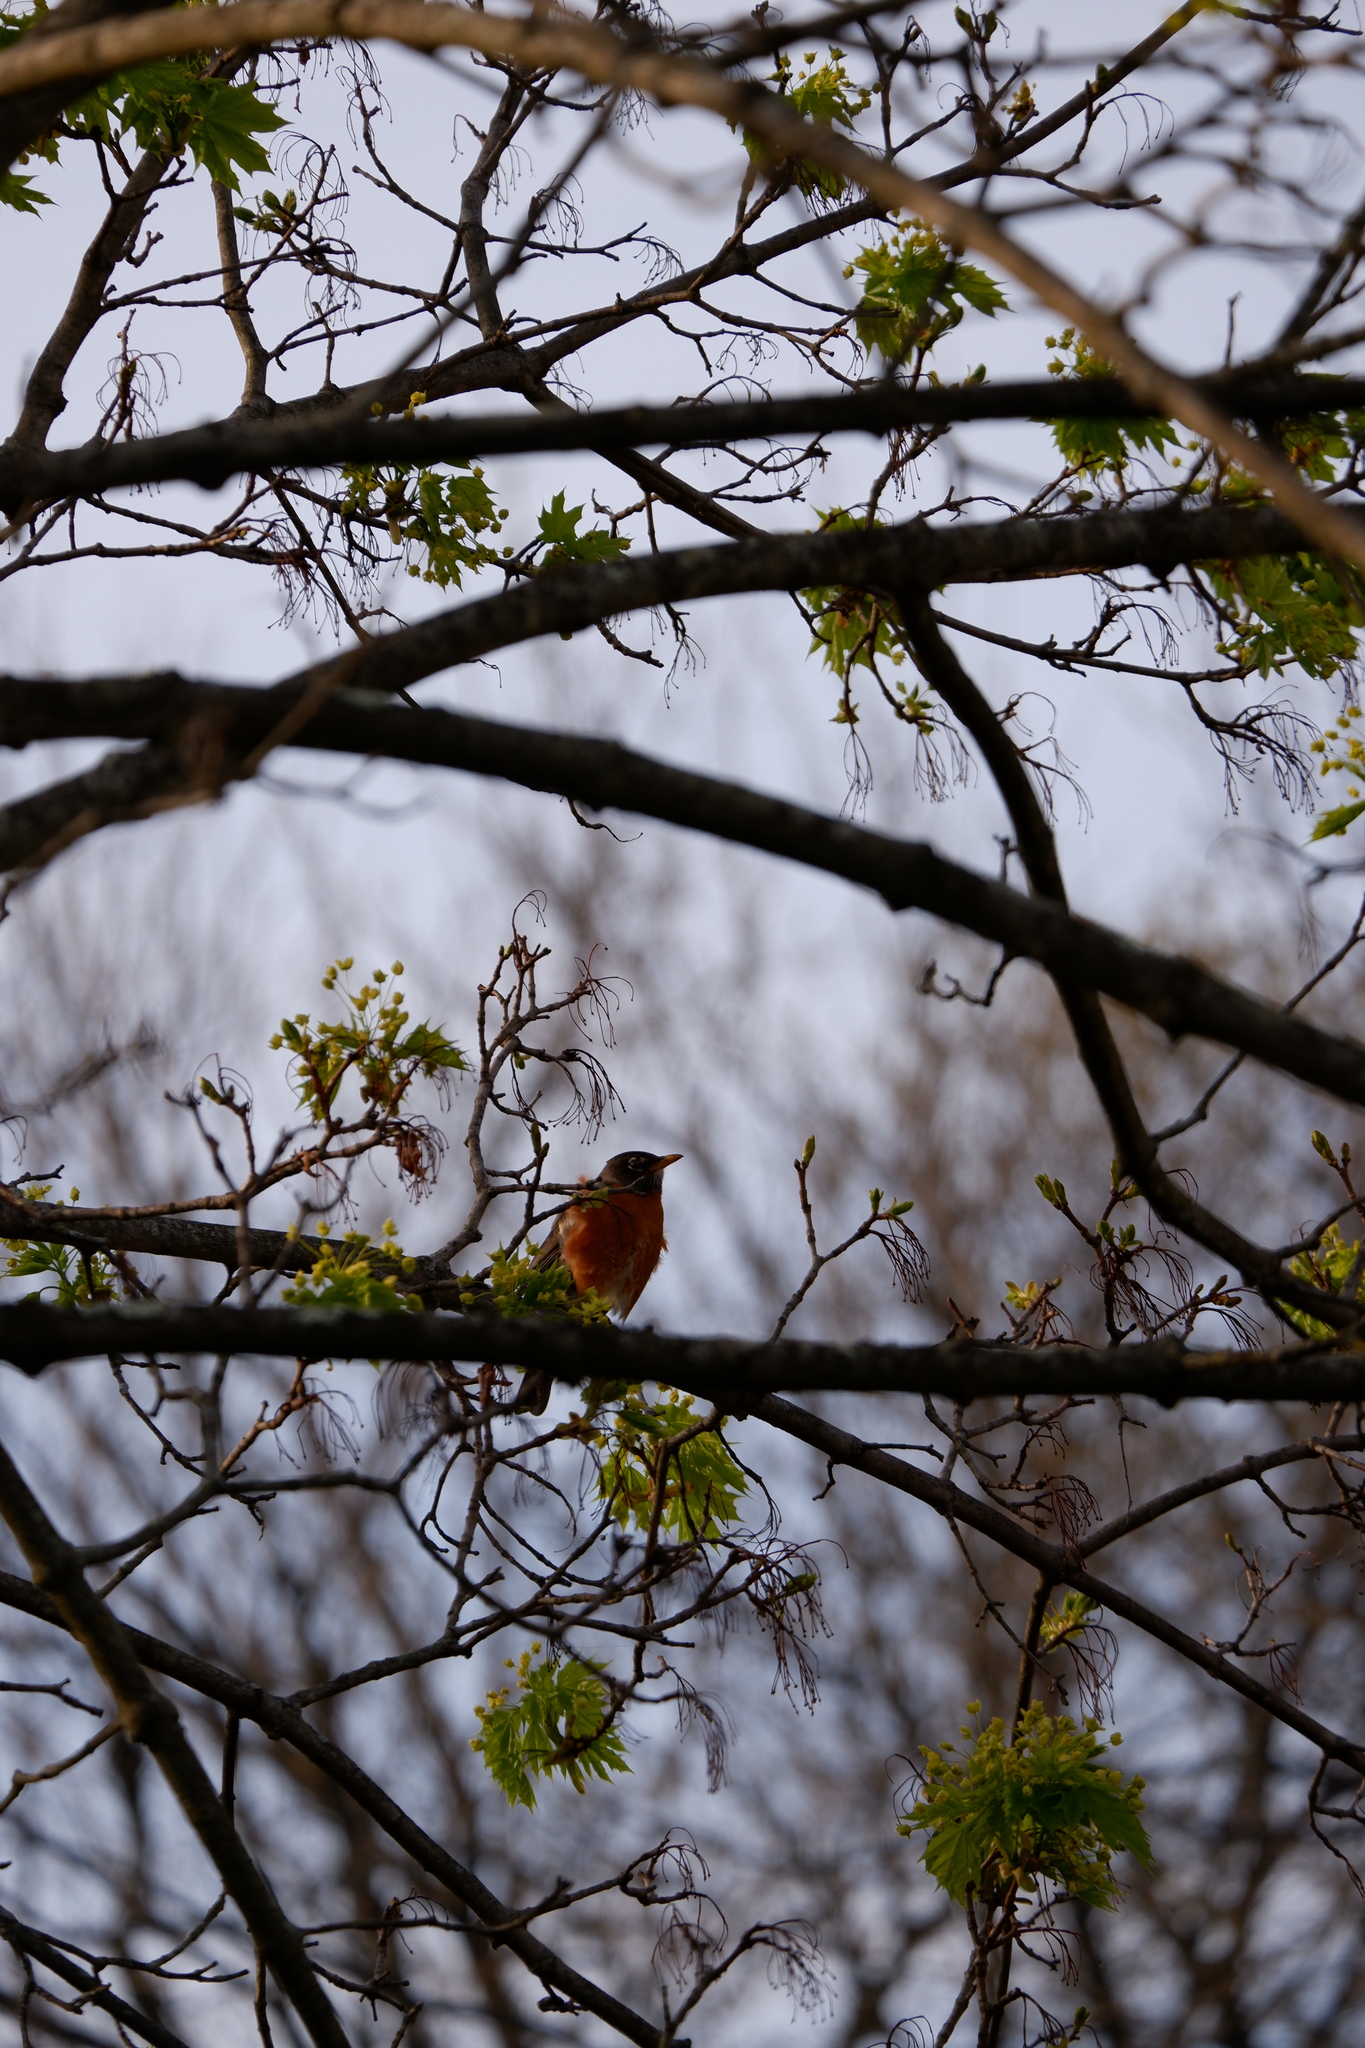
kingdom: Animalia
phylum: Chordata
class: Aves
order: Passeriformes
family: Turdidae
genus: Turdus
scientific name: Turdus migratorius
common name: American robin
